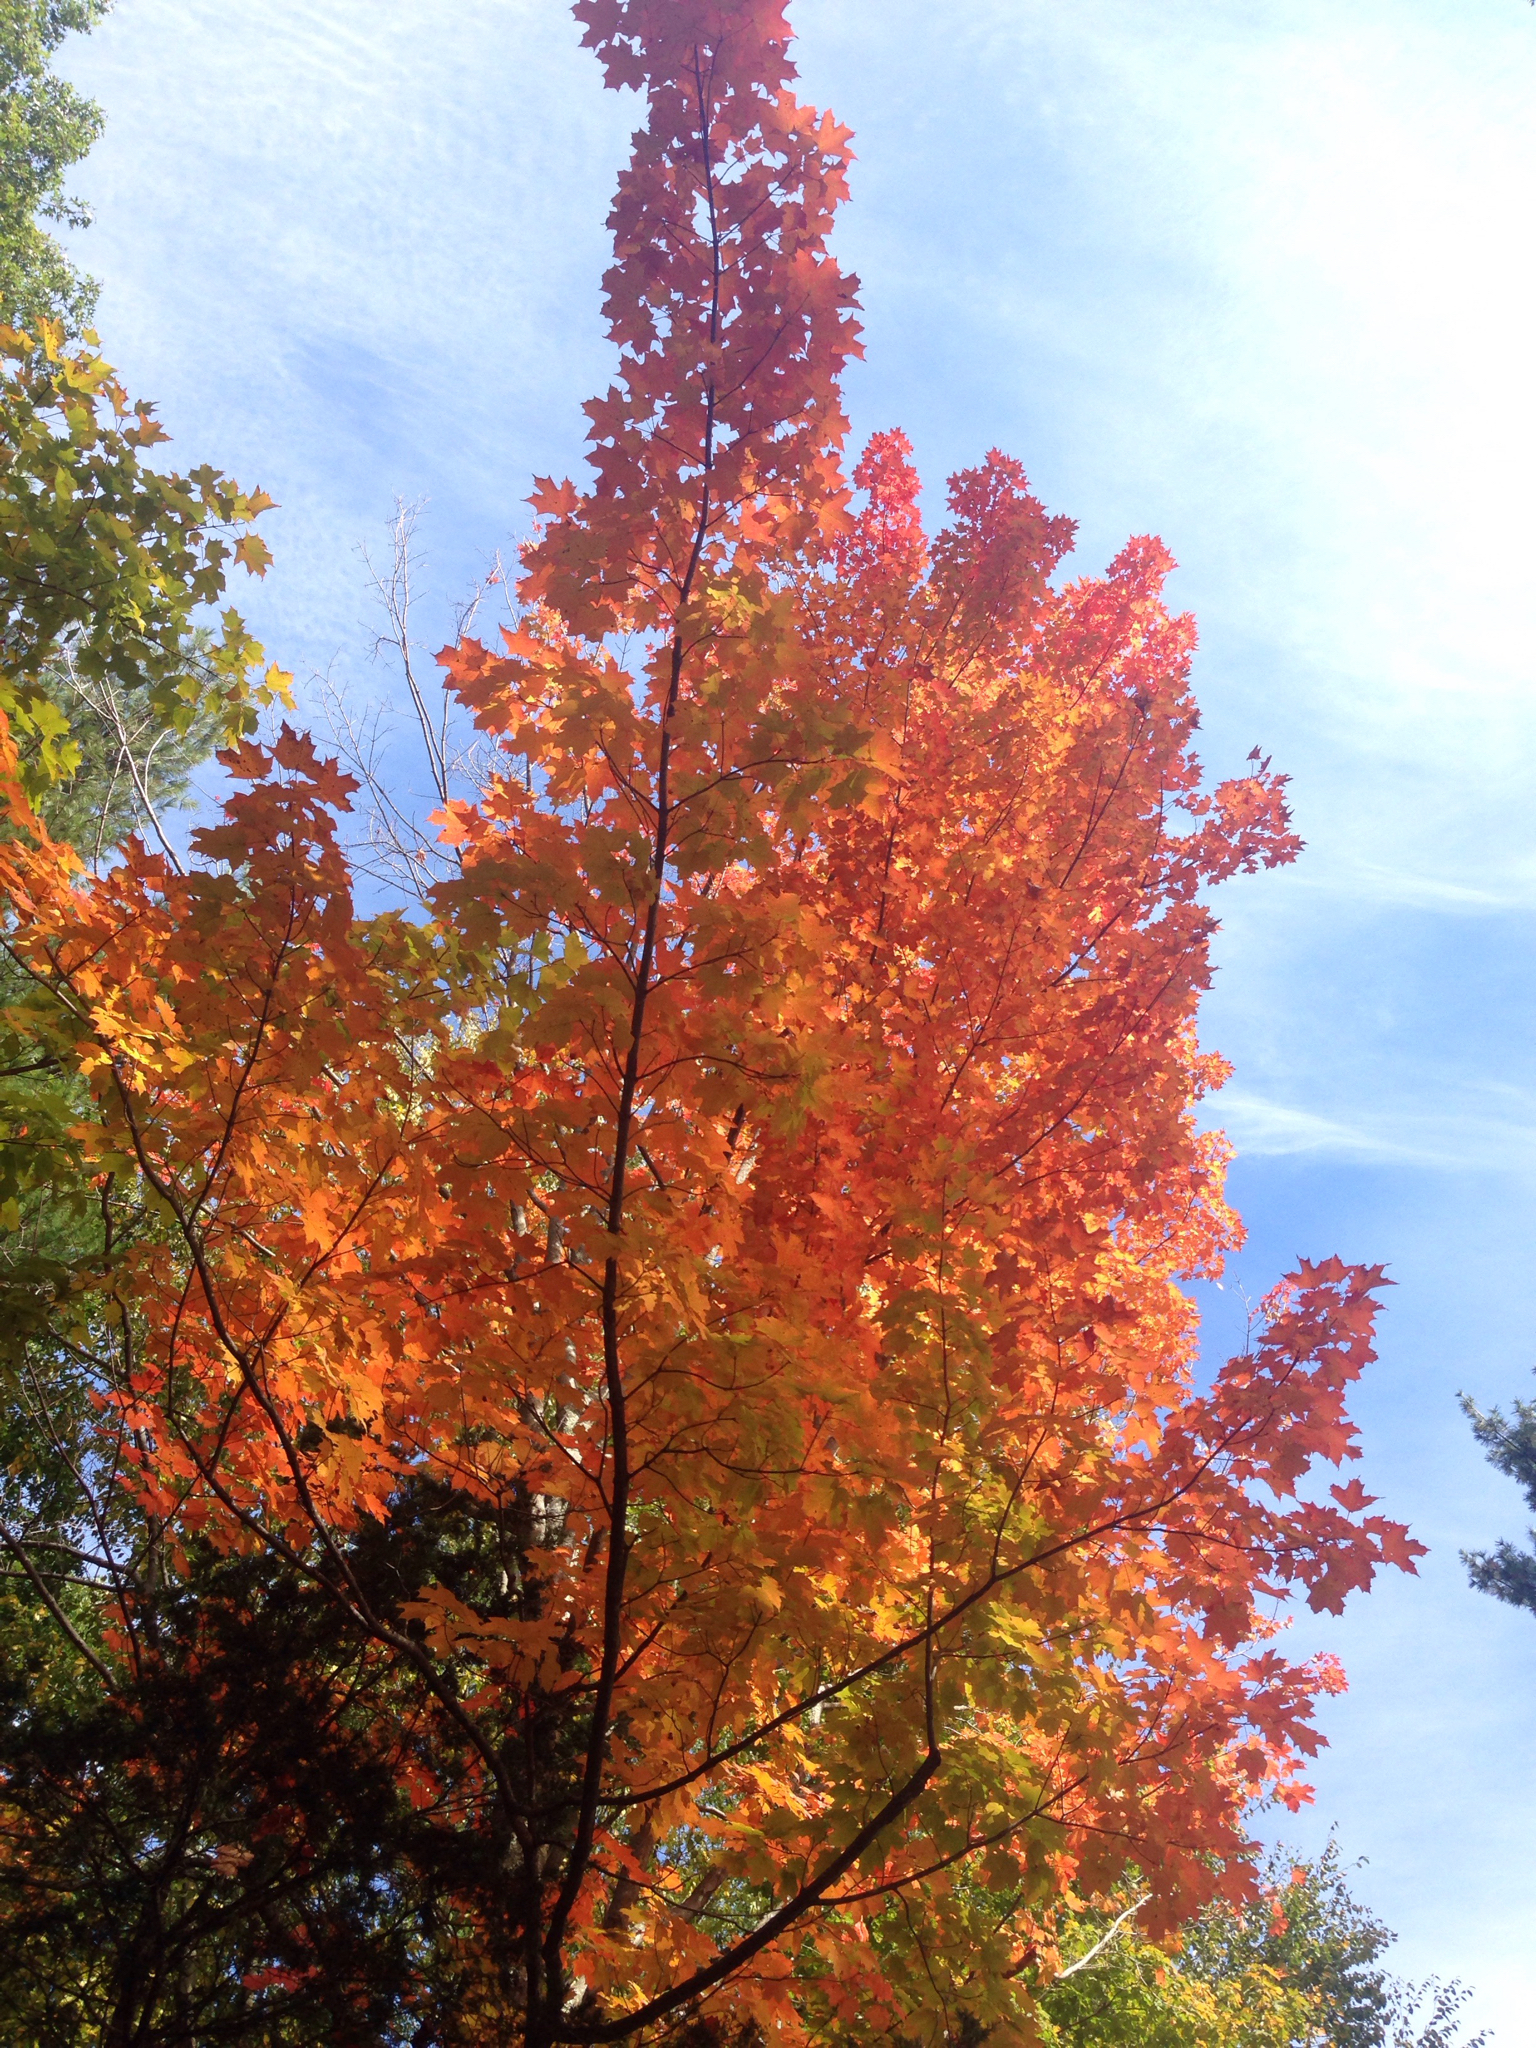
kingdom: Plantae
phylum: Tracheophyta
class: Magnoliopsida
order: Sapindales
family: Sapindaceae
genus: Acer
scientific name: Acer saccharum
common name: Sugar maple
